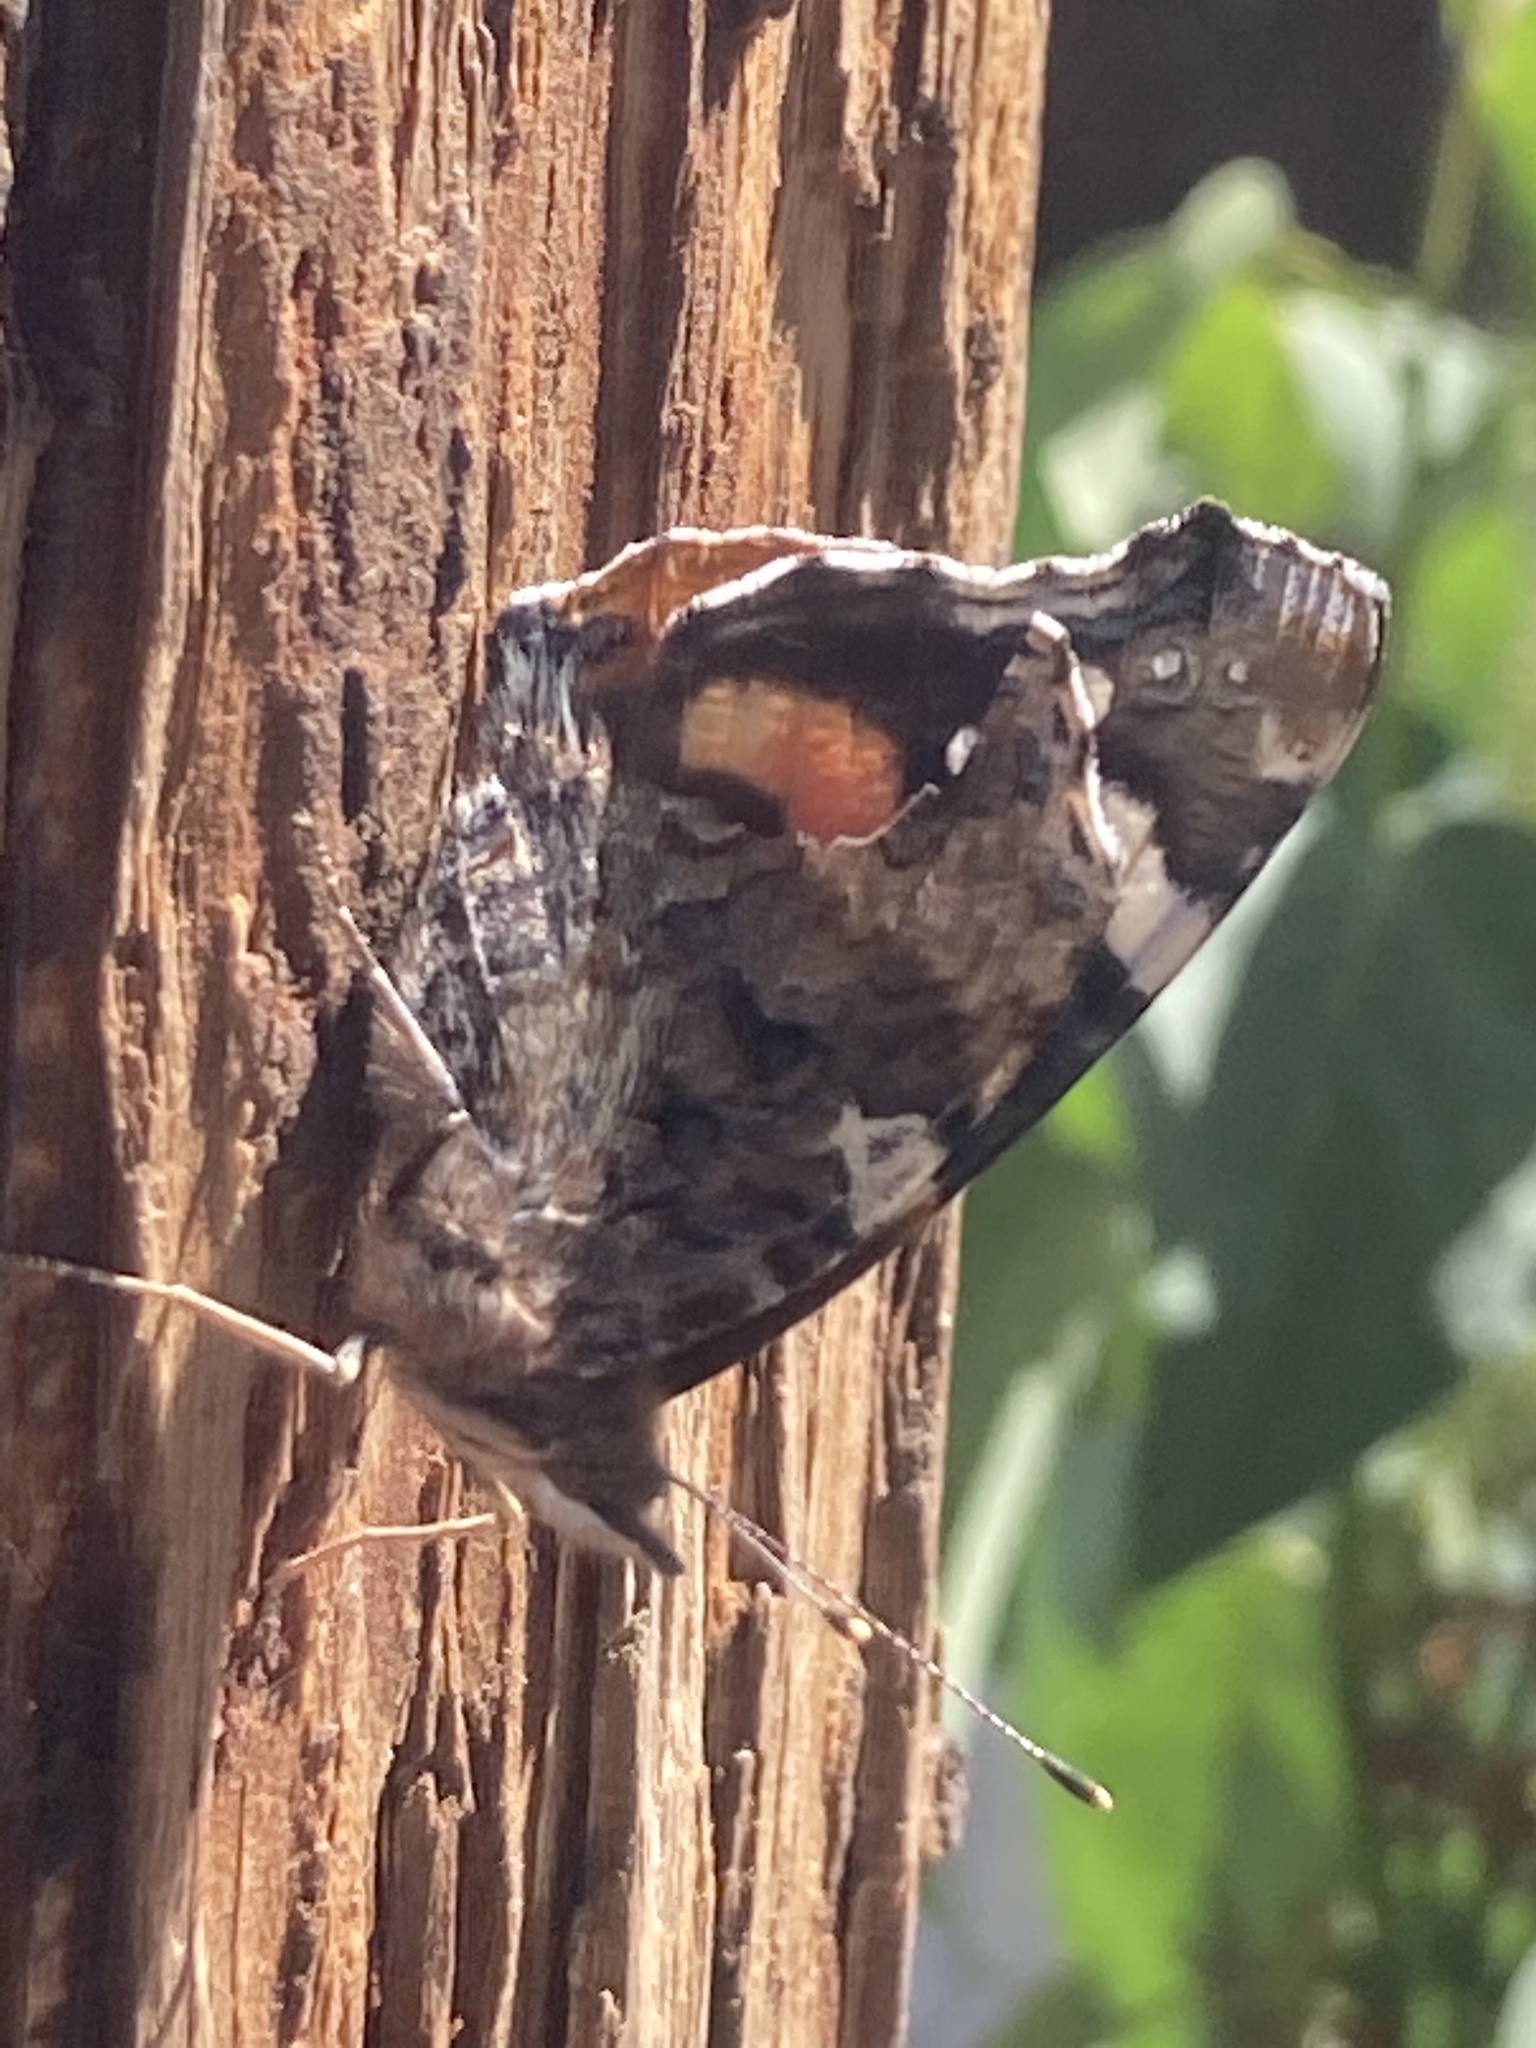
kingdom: Animalia
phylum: Arthropoda
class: Insecta
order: Lepidoptera
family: Nymphalidae
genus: Vanessa
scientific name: Vanessa atalanta
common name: Red admiral
